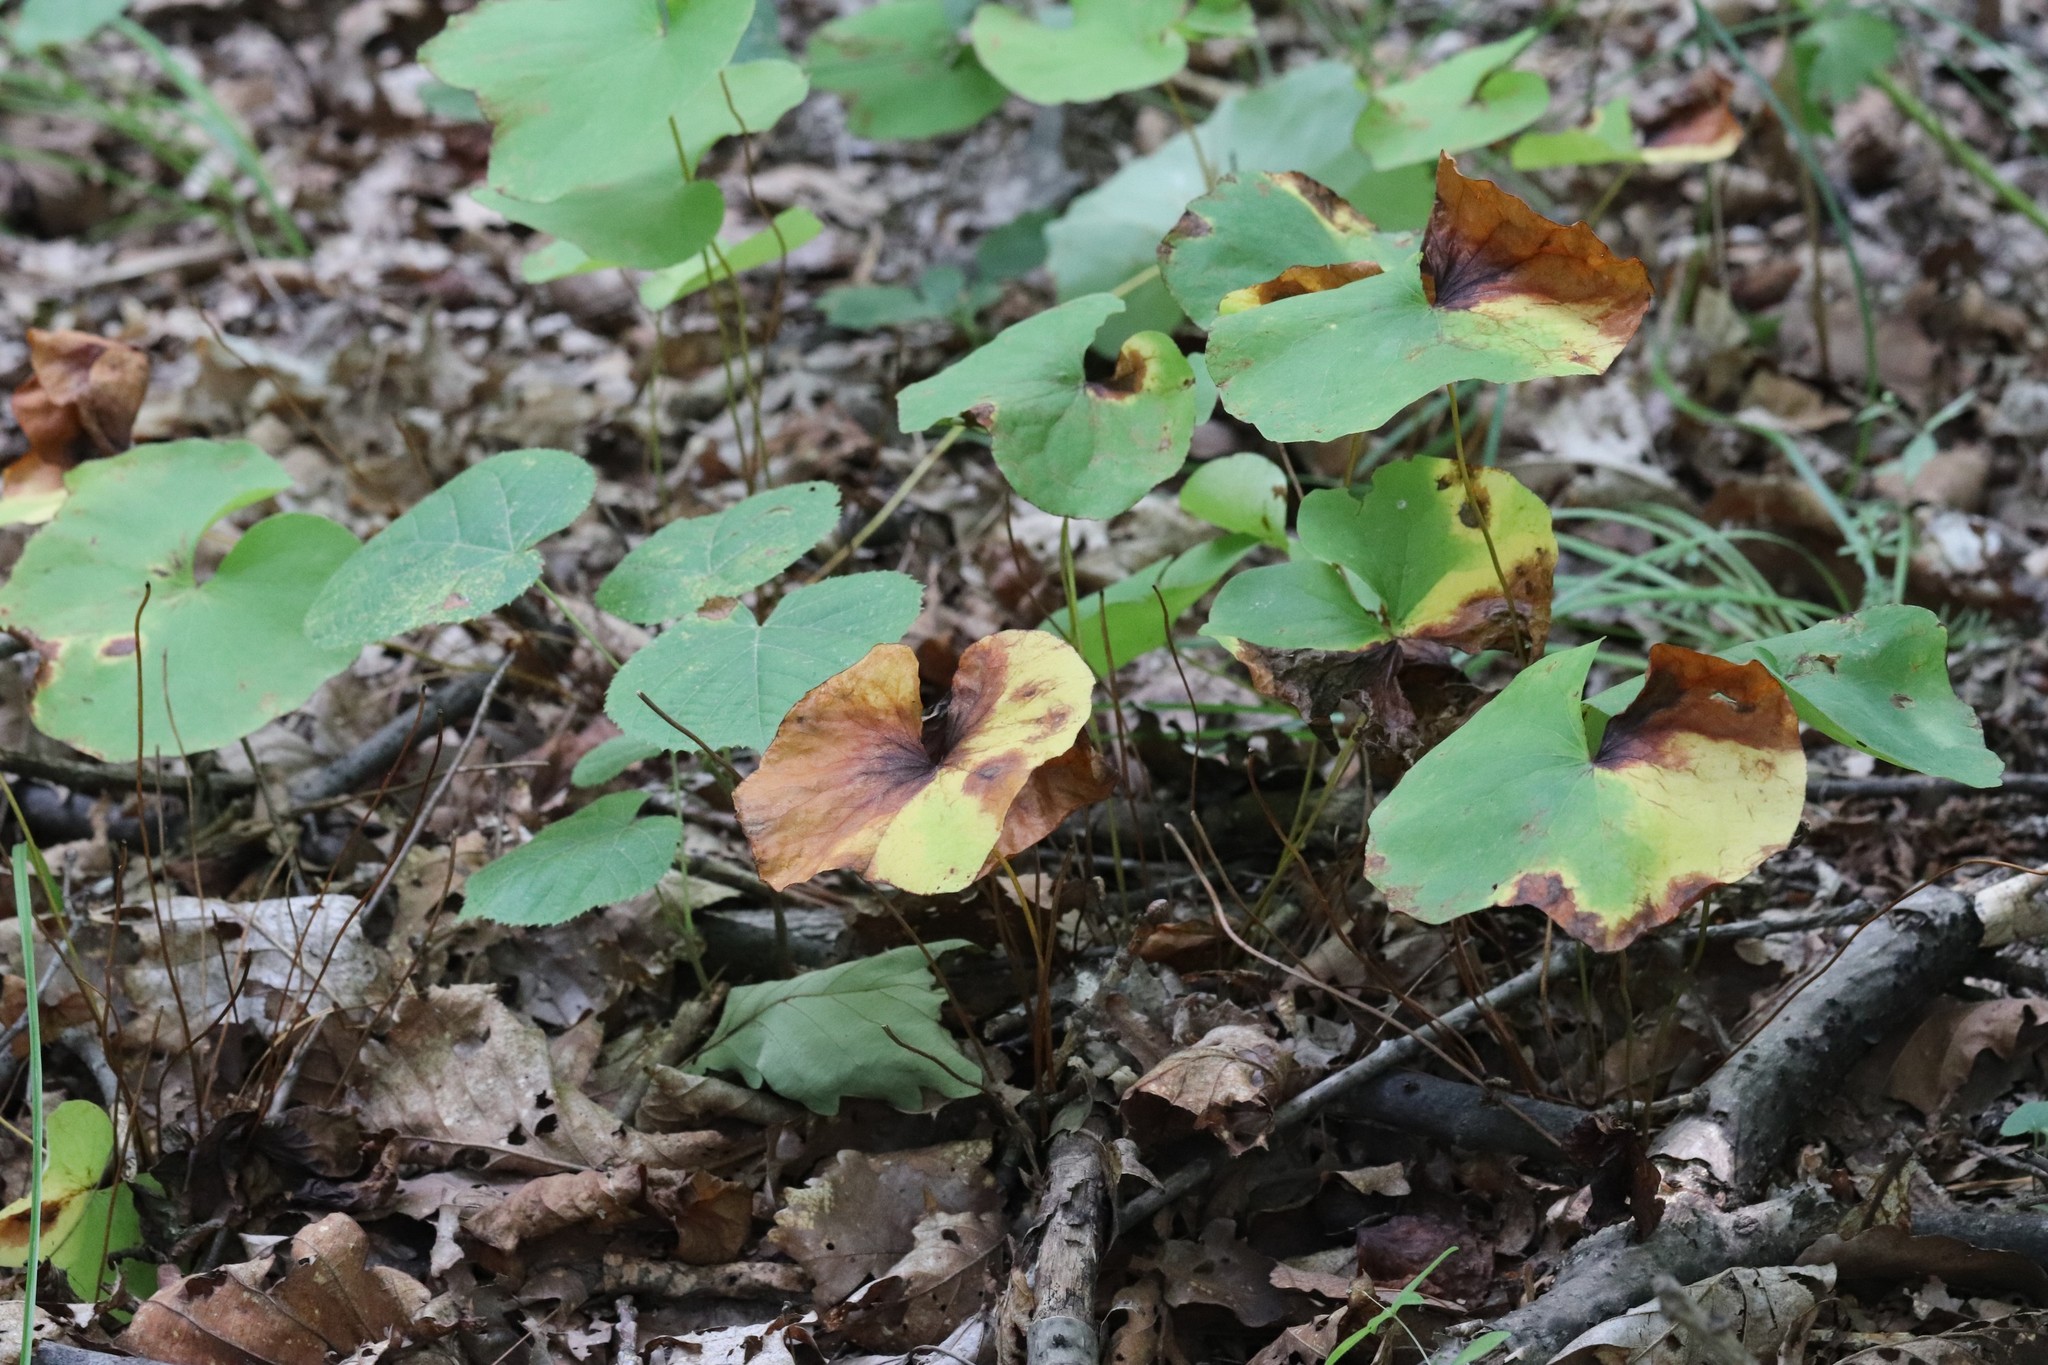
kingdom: Plantae
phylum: Tracheophyta
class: Magnoliopsida
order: Ranunculales
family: Berberidaceae
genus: Plagiorhegma
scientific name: Plagiorhegma dubium
